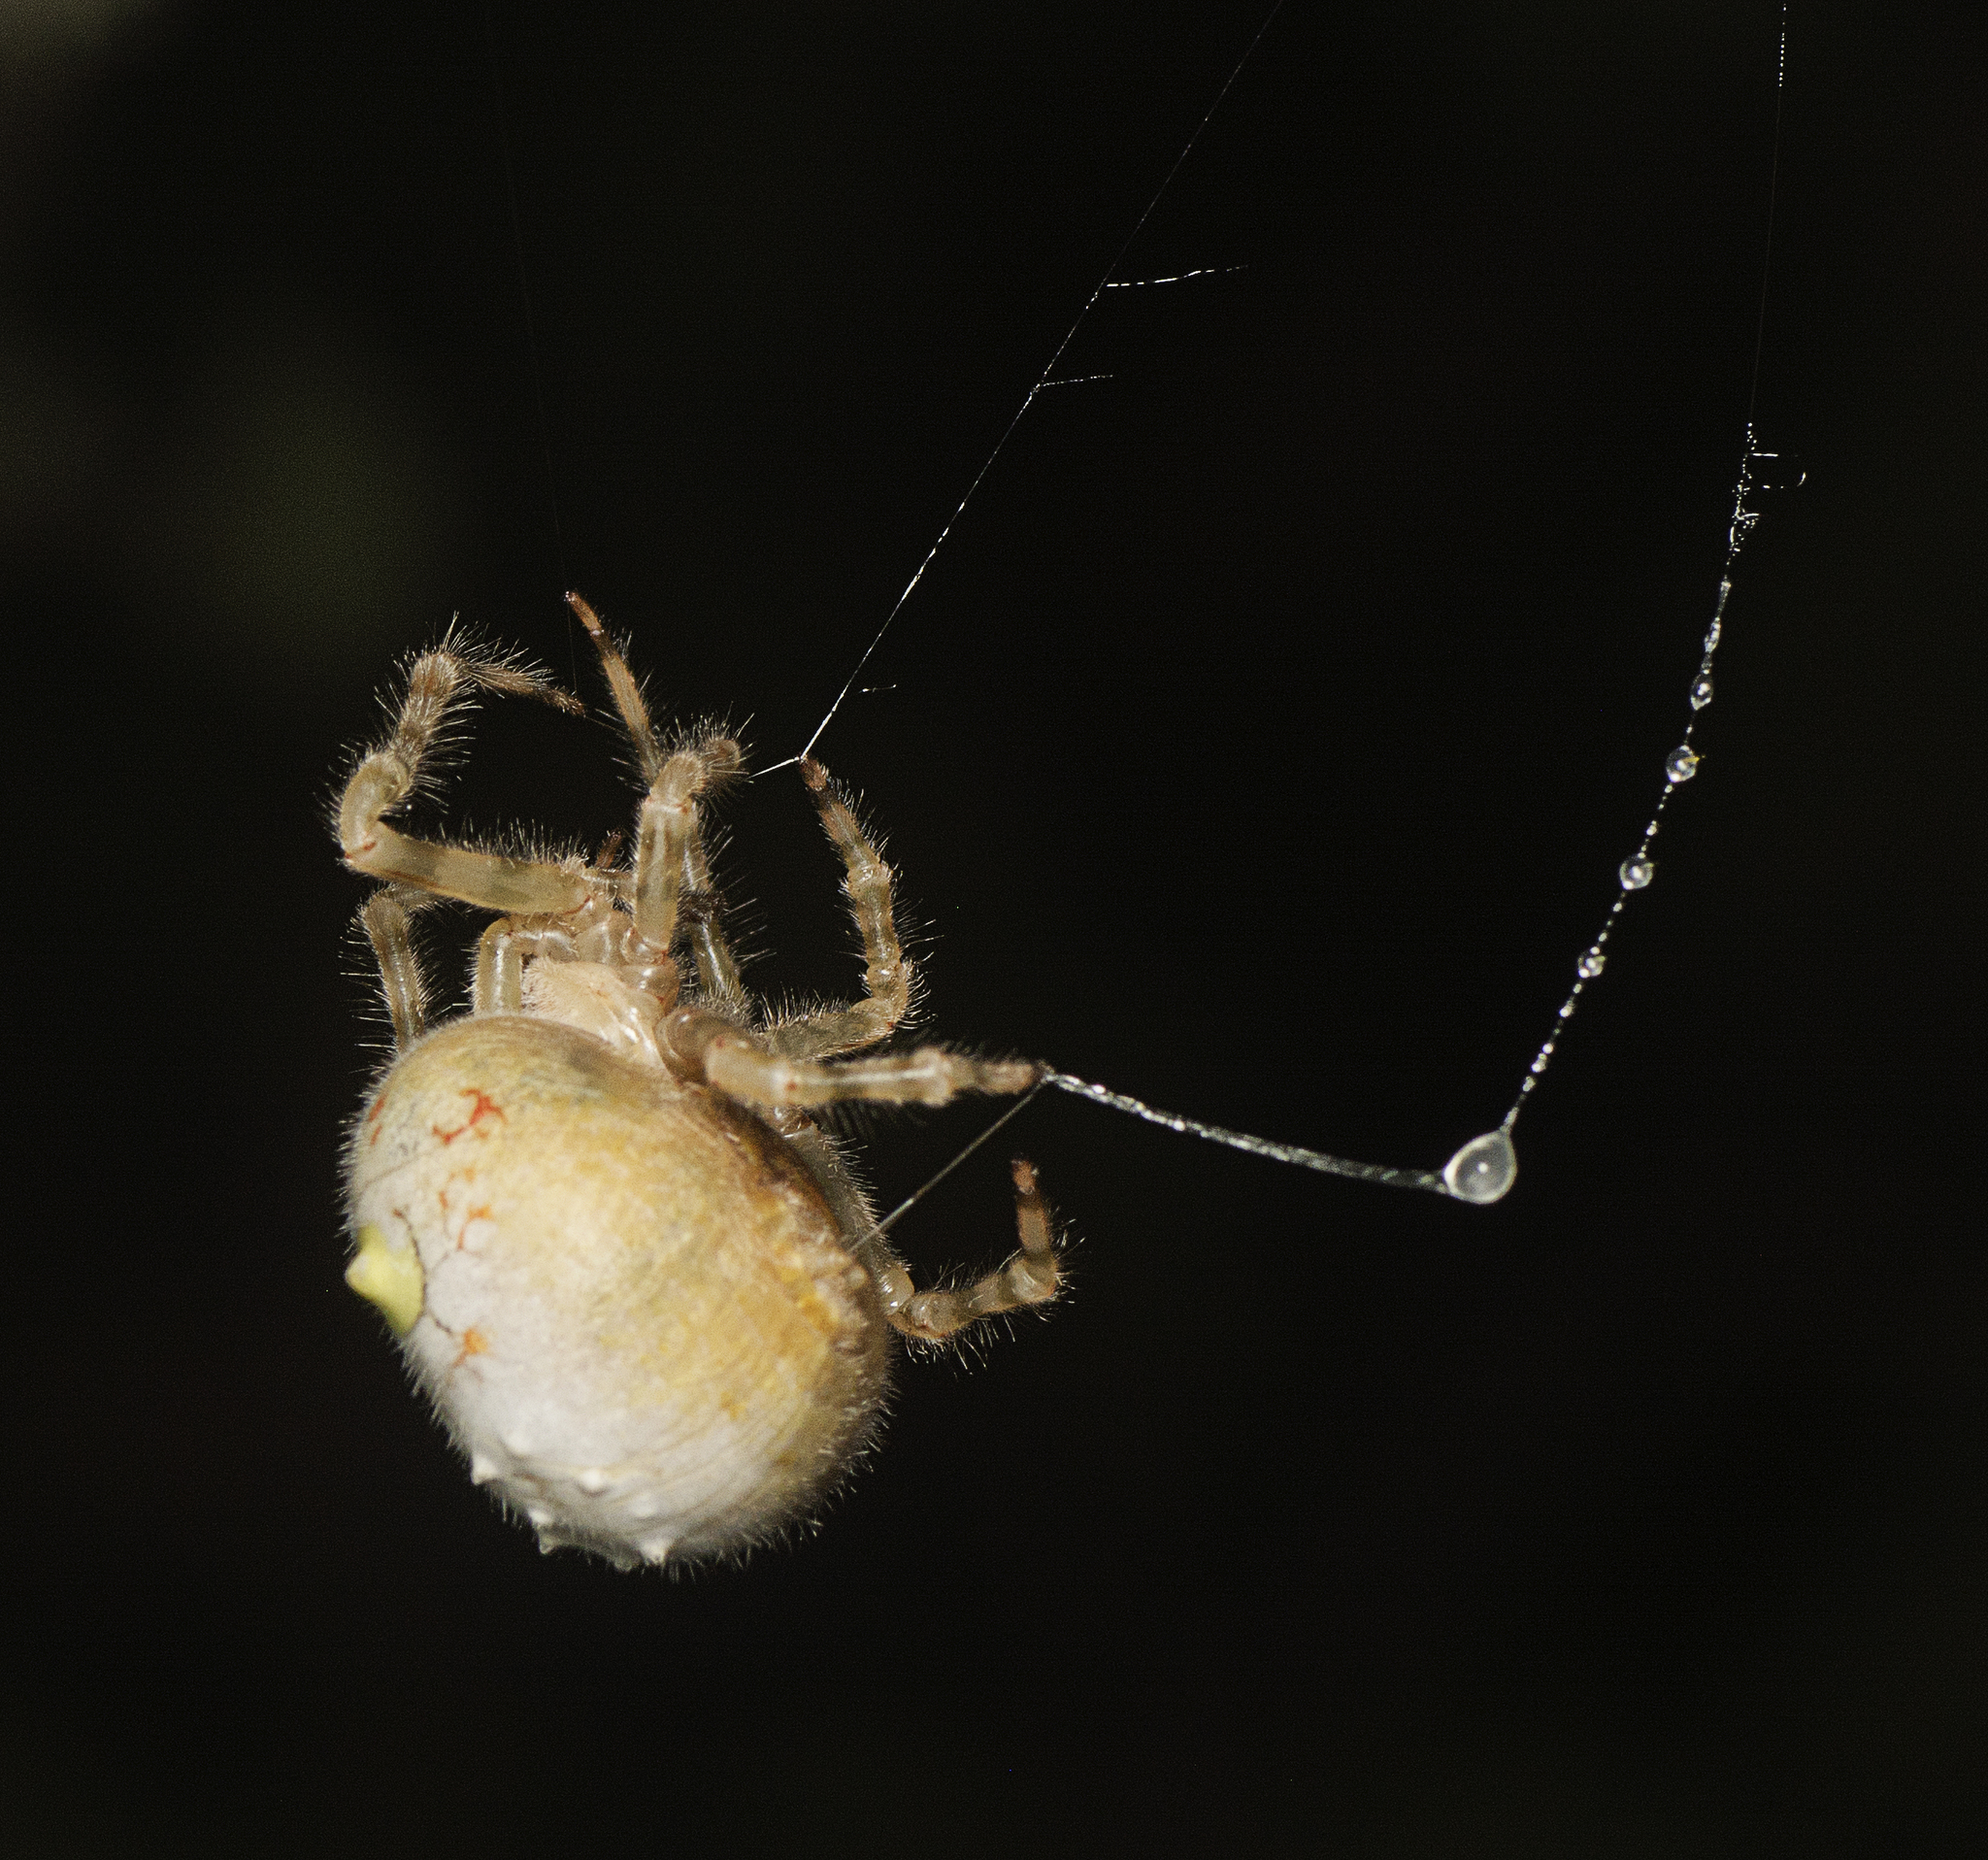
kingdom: Animalia
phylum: Arthropoda
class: Arachnida
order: Araneae
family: Araneidae
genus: Ordgarius
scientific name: Ordgarius magnificus
